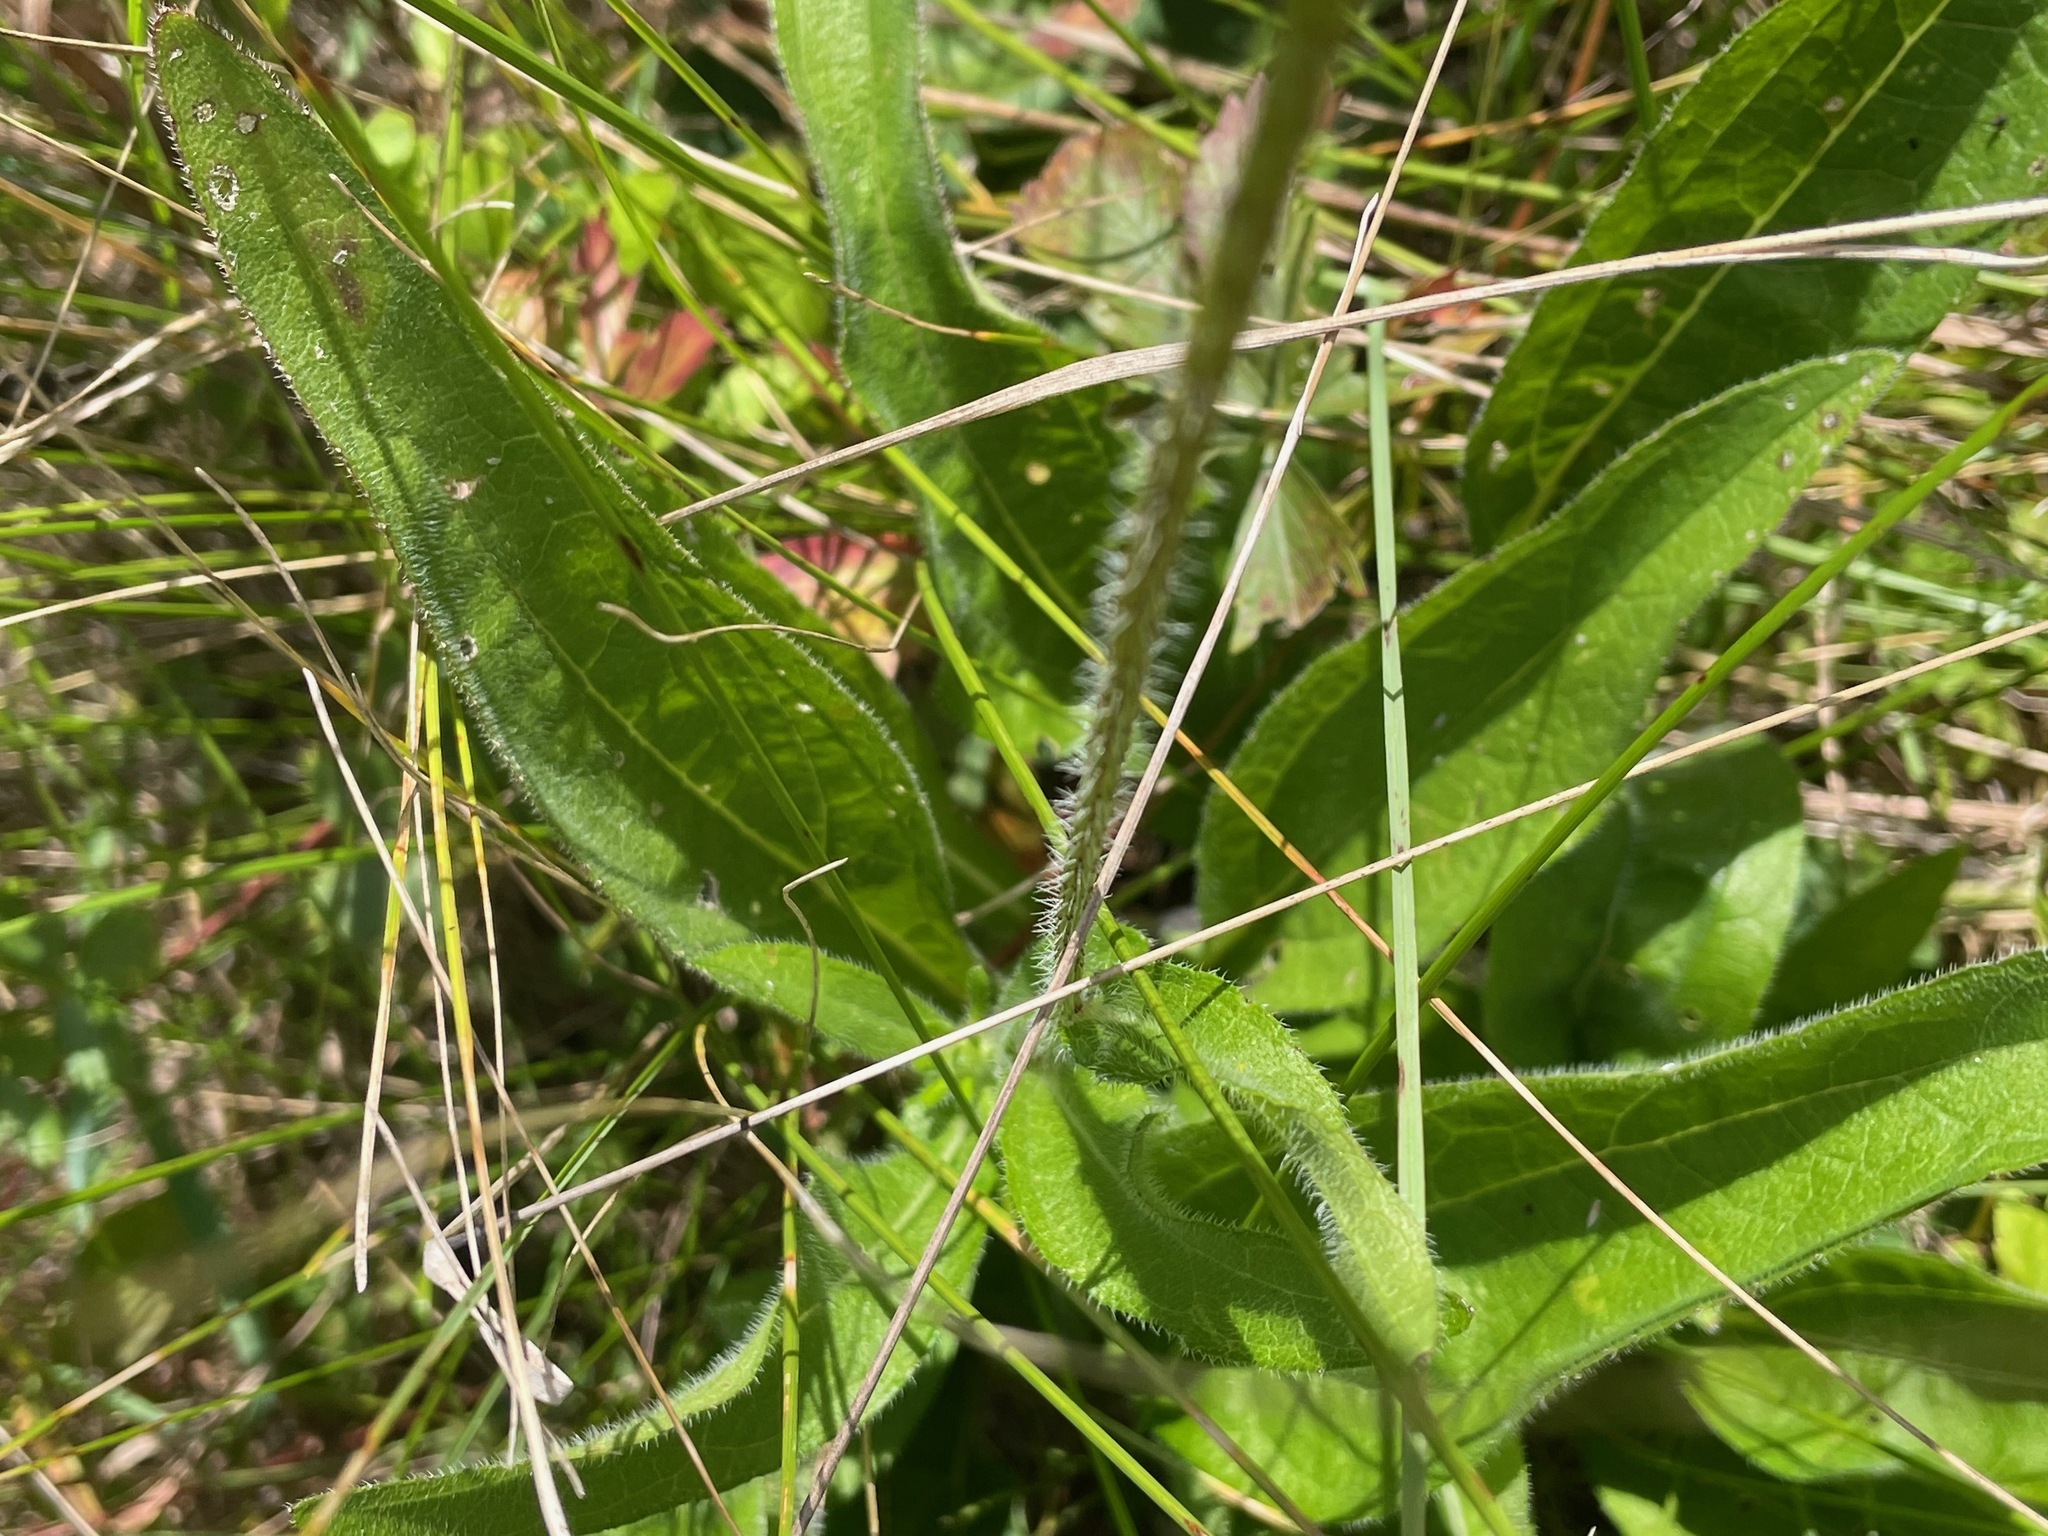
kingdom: Plantae
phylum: Tracheophyta
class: Magnoliopsida
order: Asterales
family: Asteraceae
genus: Rudbeckia
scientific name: Rudbeckia hirta
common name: Black-eyed-susan
